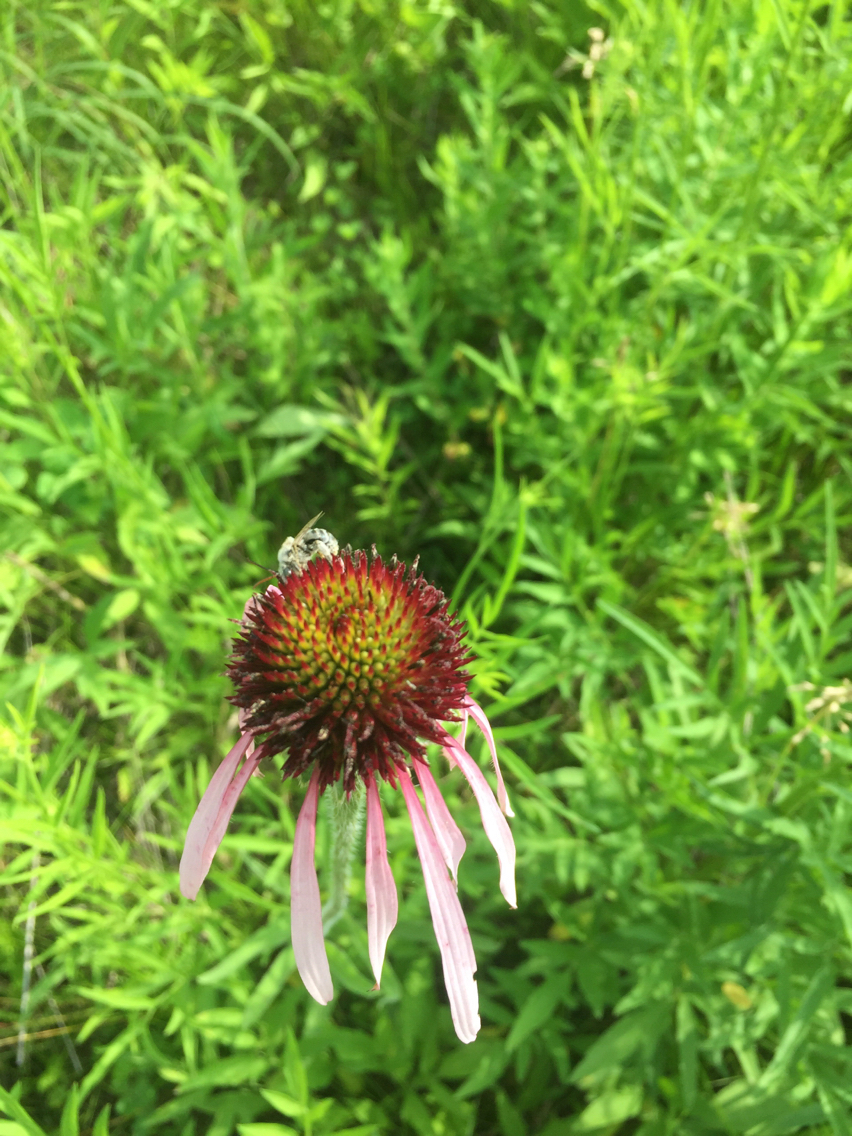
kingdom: Plantae
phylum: Tracheophyta
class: Magnoliopsida
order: Asterales
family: Asteraceae
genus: Echinacea
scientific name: Echinacea pallida
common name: Pale echinacea
